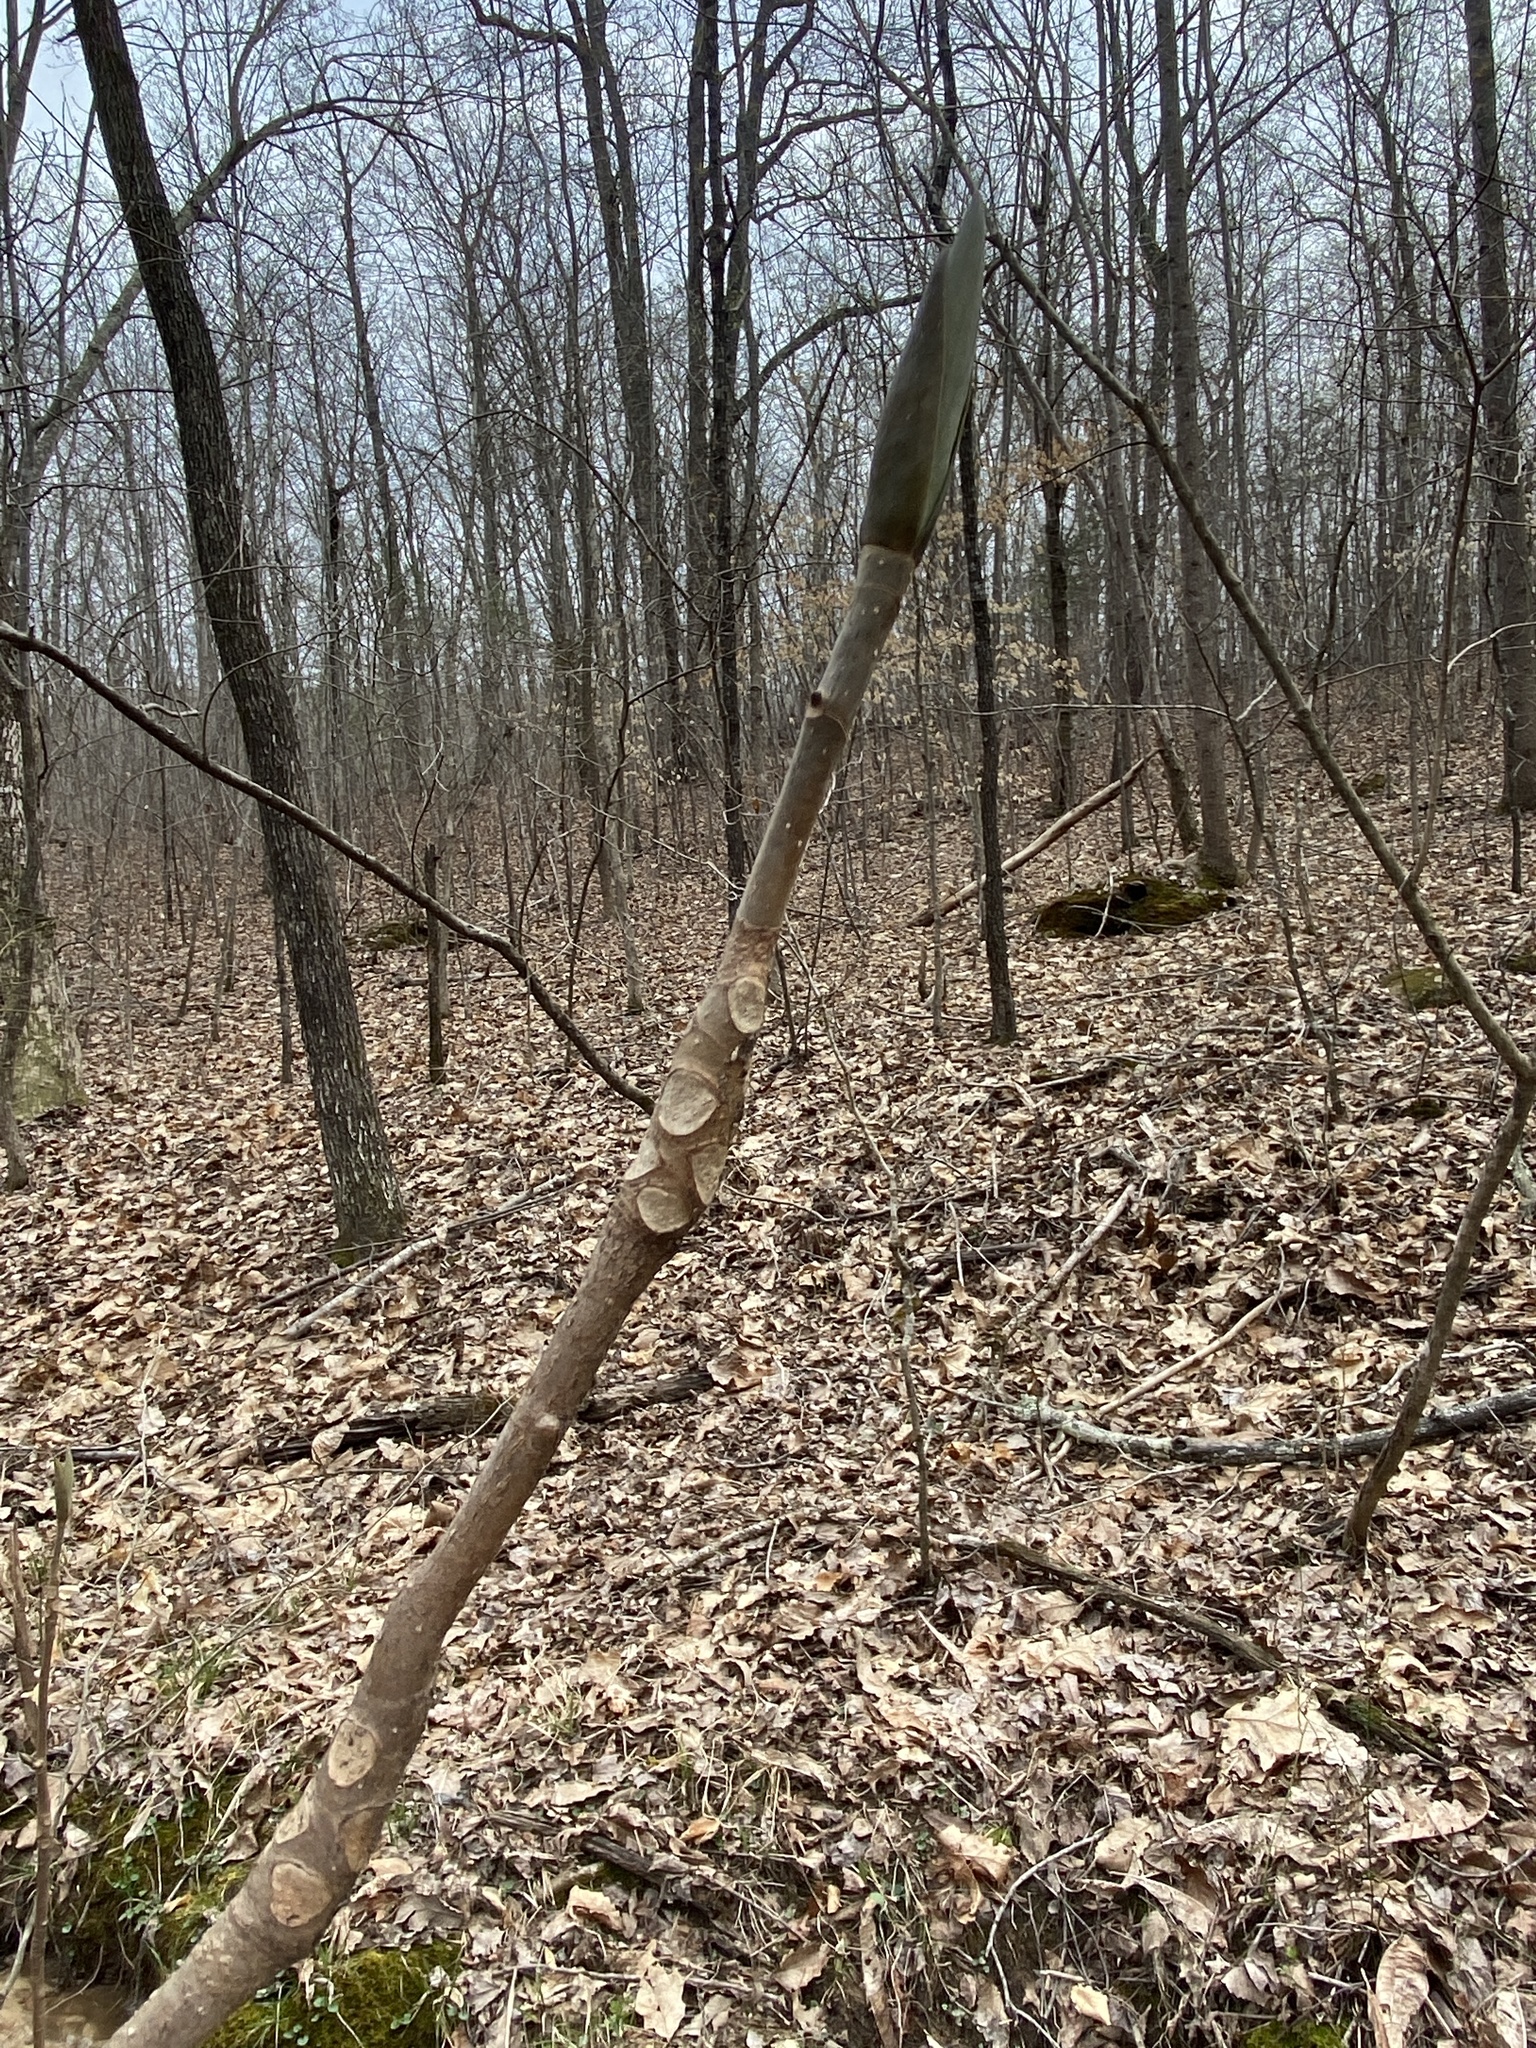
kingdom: Plantae
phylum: Tracheophyta
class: Magnoliopsida
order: Magnoliales
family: Magnoliaceae
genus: Magnolia
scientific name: Magnolia tripetala
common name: Umbrella magnolia
